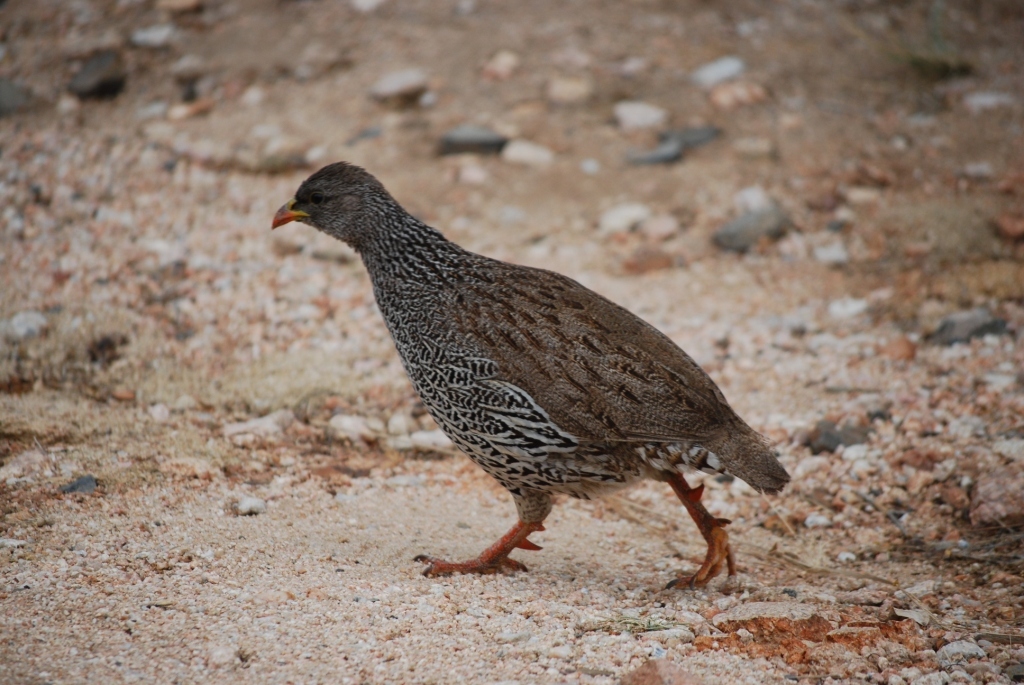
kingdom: Animalia
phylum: Chordata
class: Aves
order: Galliformes
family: Phasianidae
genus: Pternistis
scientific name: Pternistis natalensis
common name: Natal spurfowl
